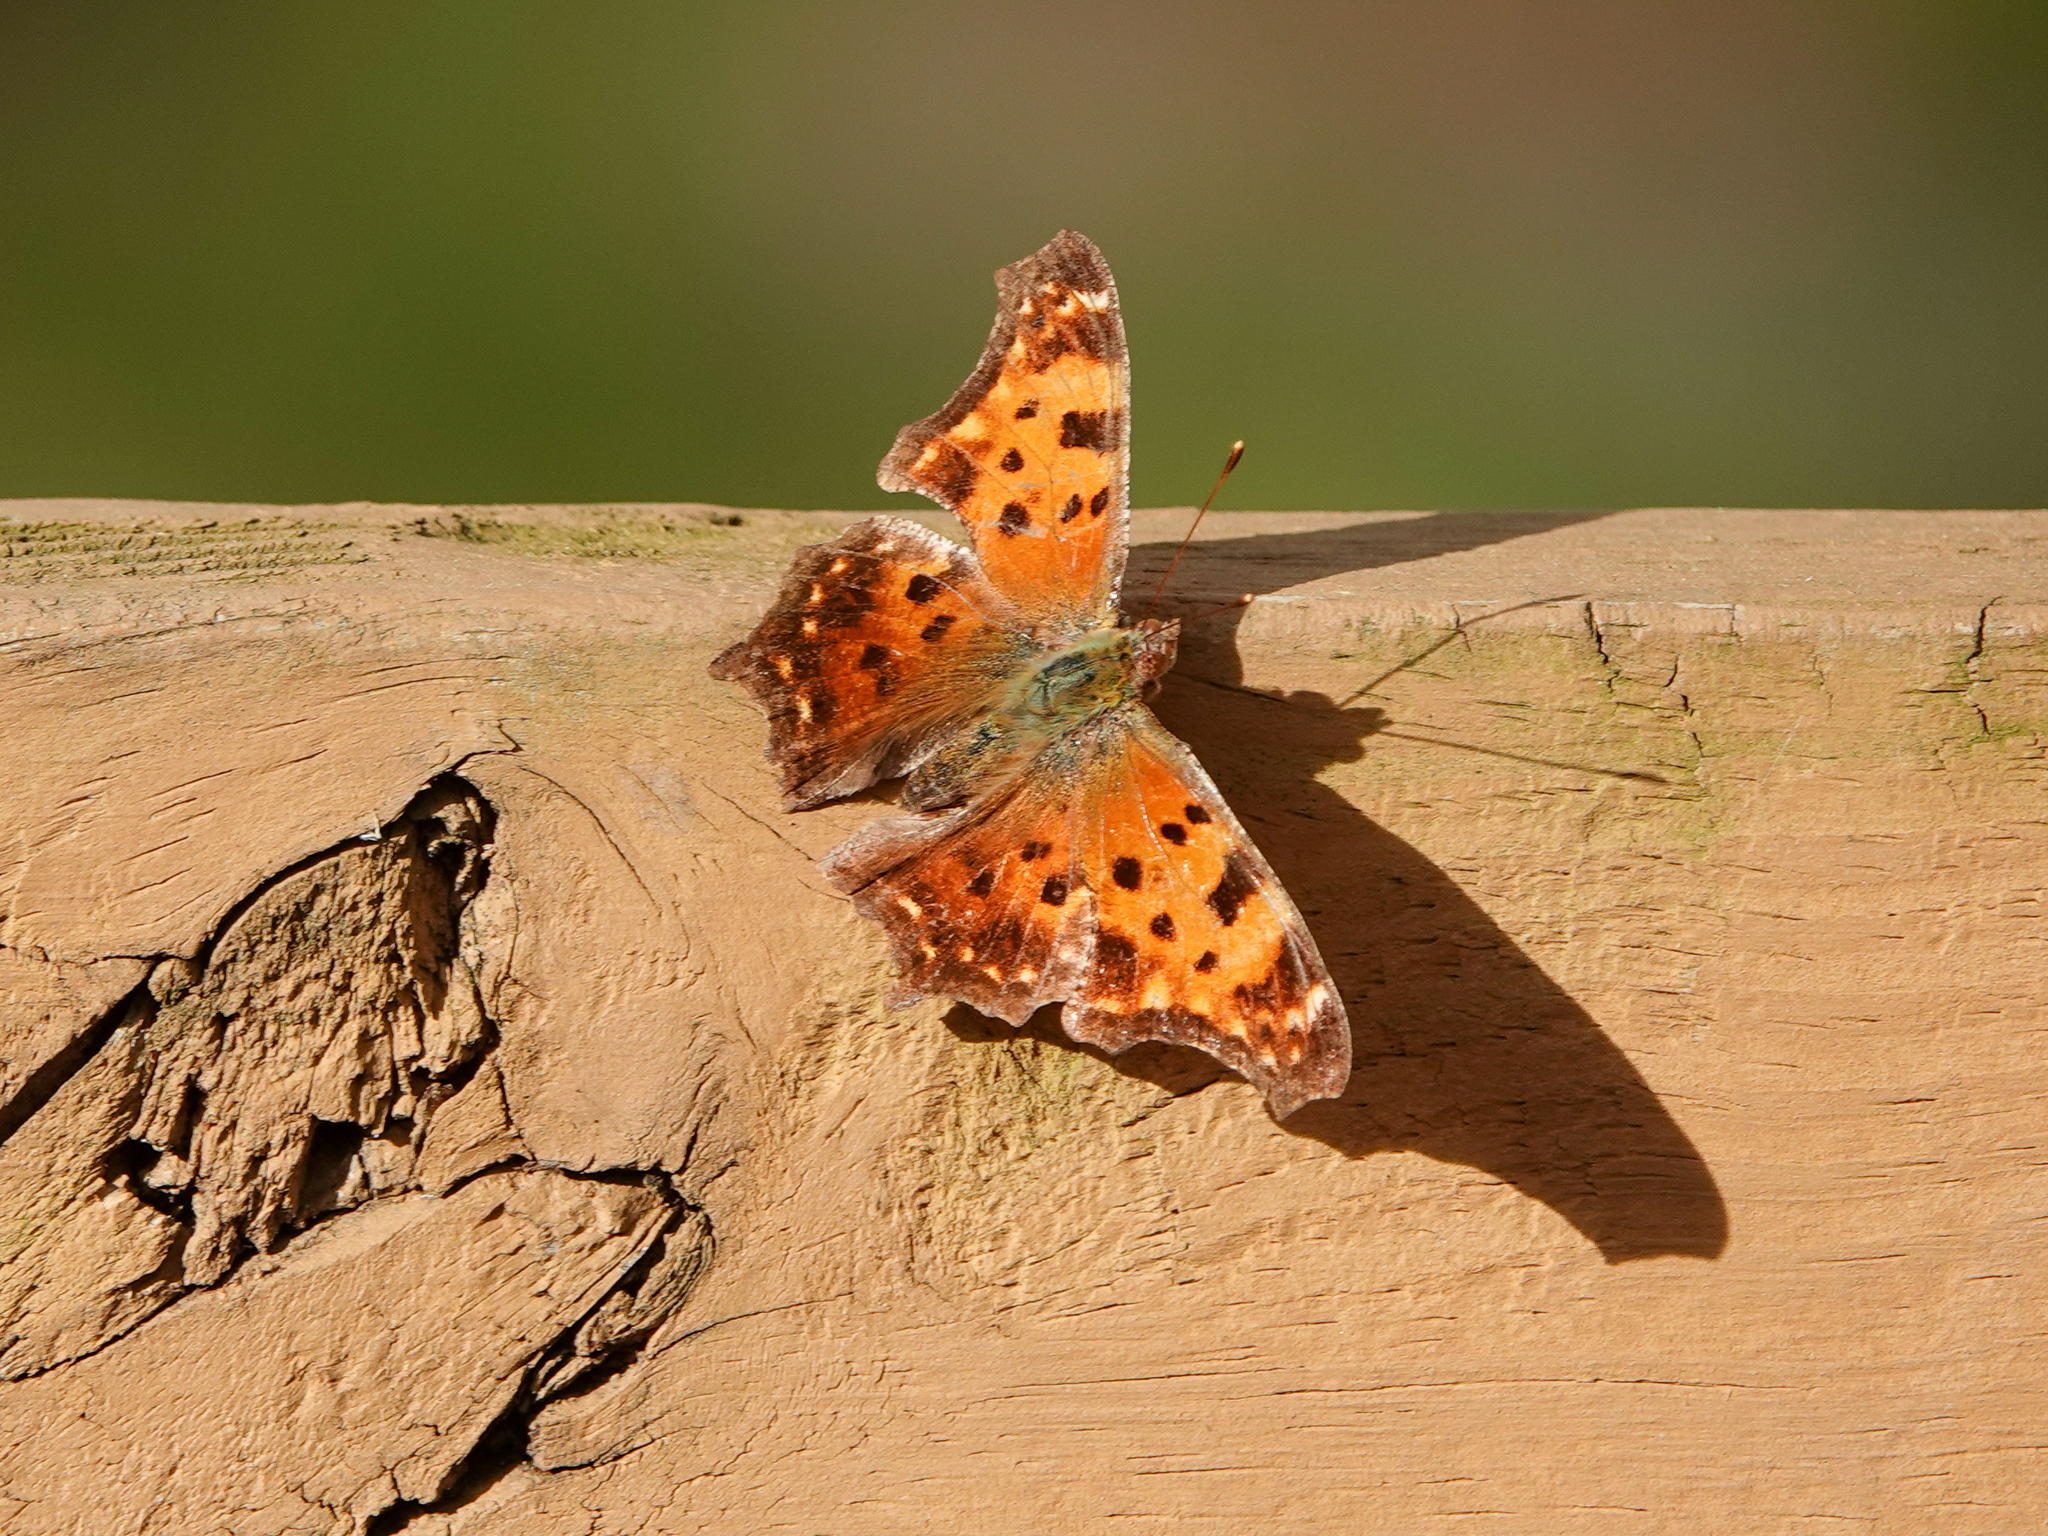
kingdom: Animalia
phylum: Arthropoda
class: Insecta
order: Lepidoptera
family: Nymphalidae
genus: Polygonia
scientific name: Polygonia comma
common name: Eastern comma
